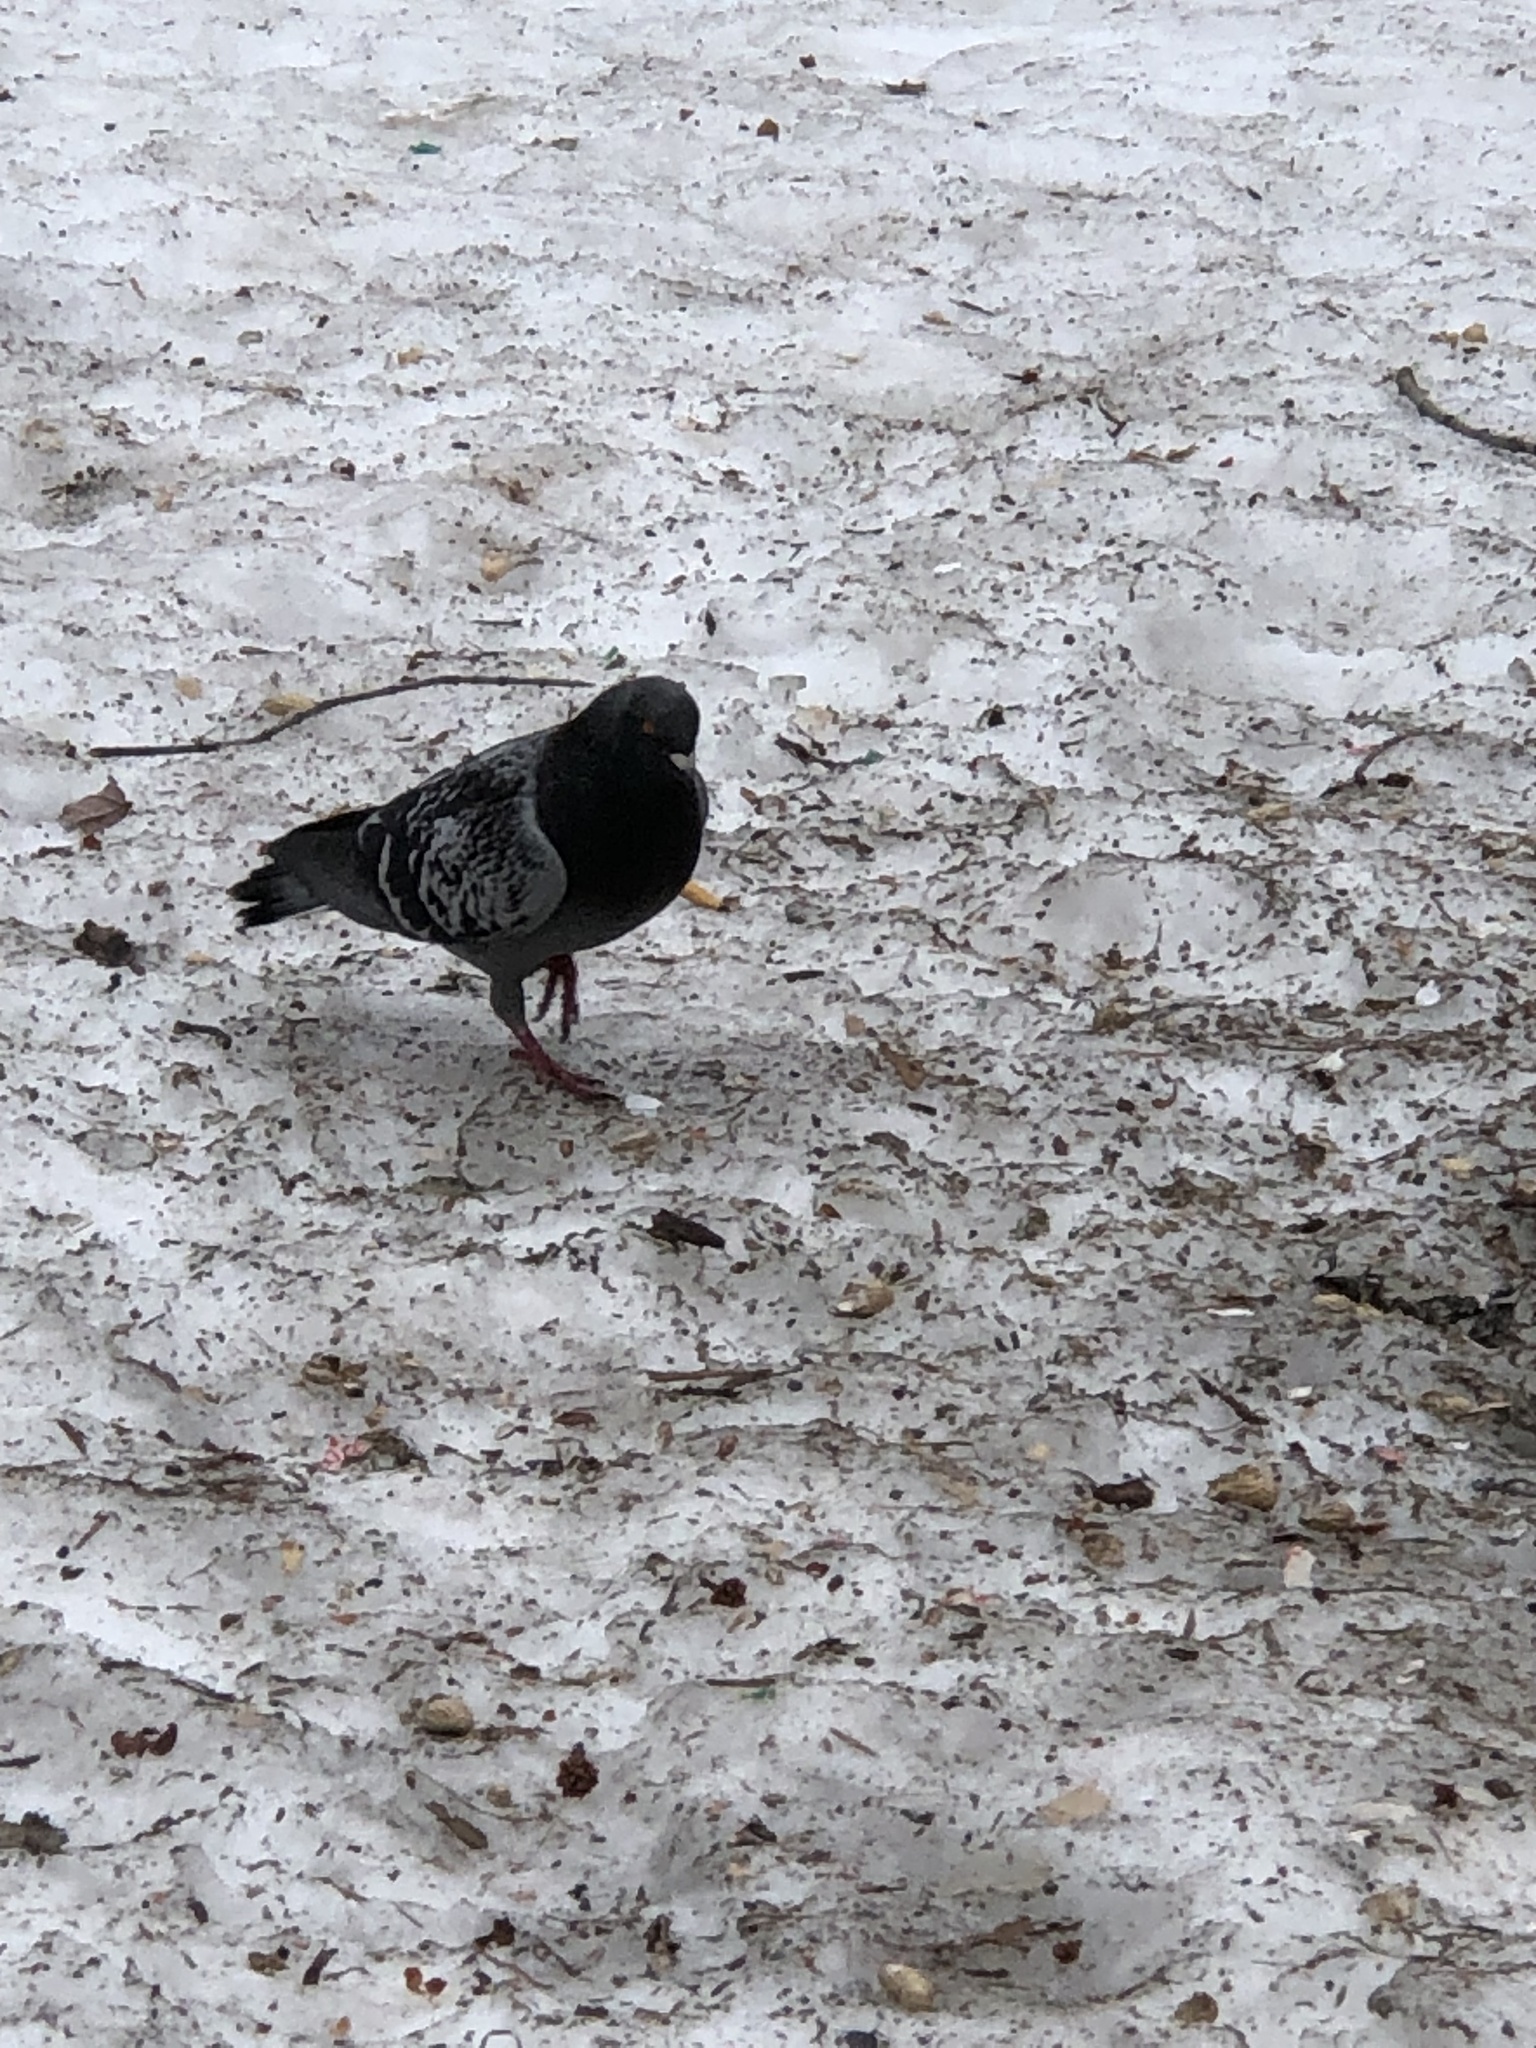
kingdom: Animalia
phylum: Chordata
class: Aves
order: Columbiformes
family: Columbidae
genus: Columba
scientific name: Columba livia
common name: Rock pigeon
